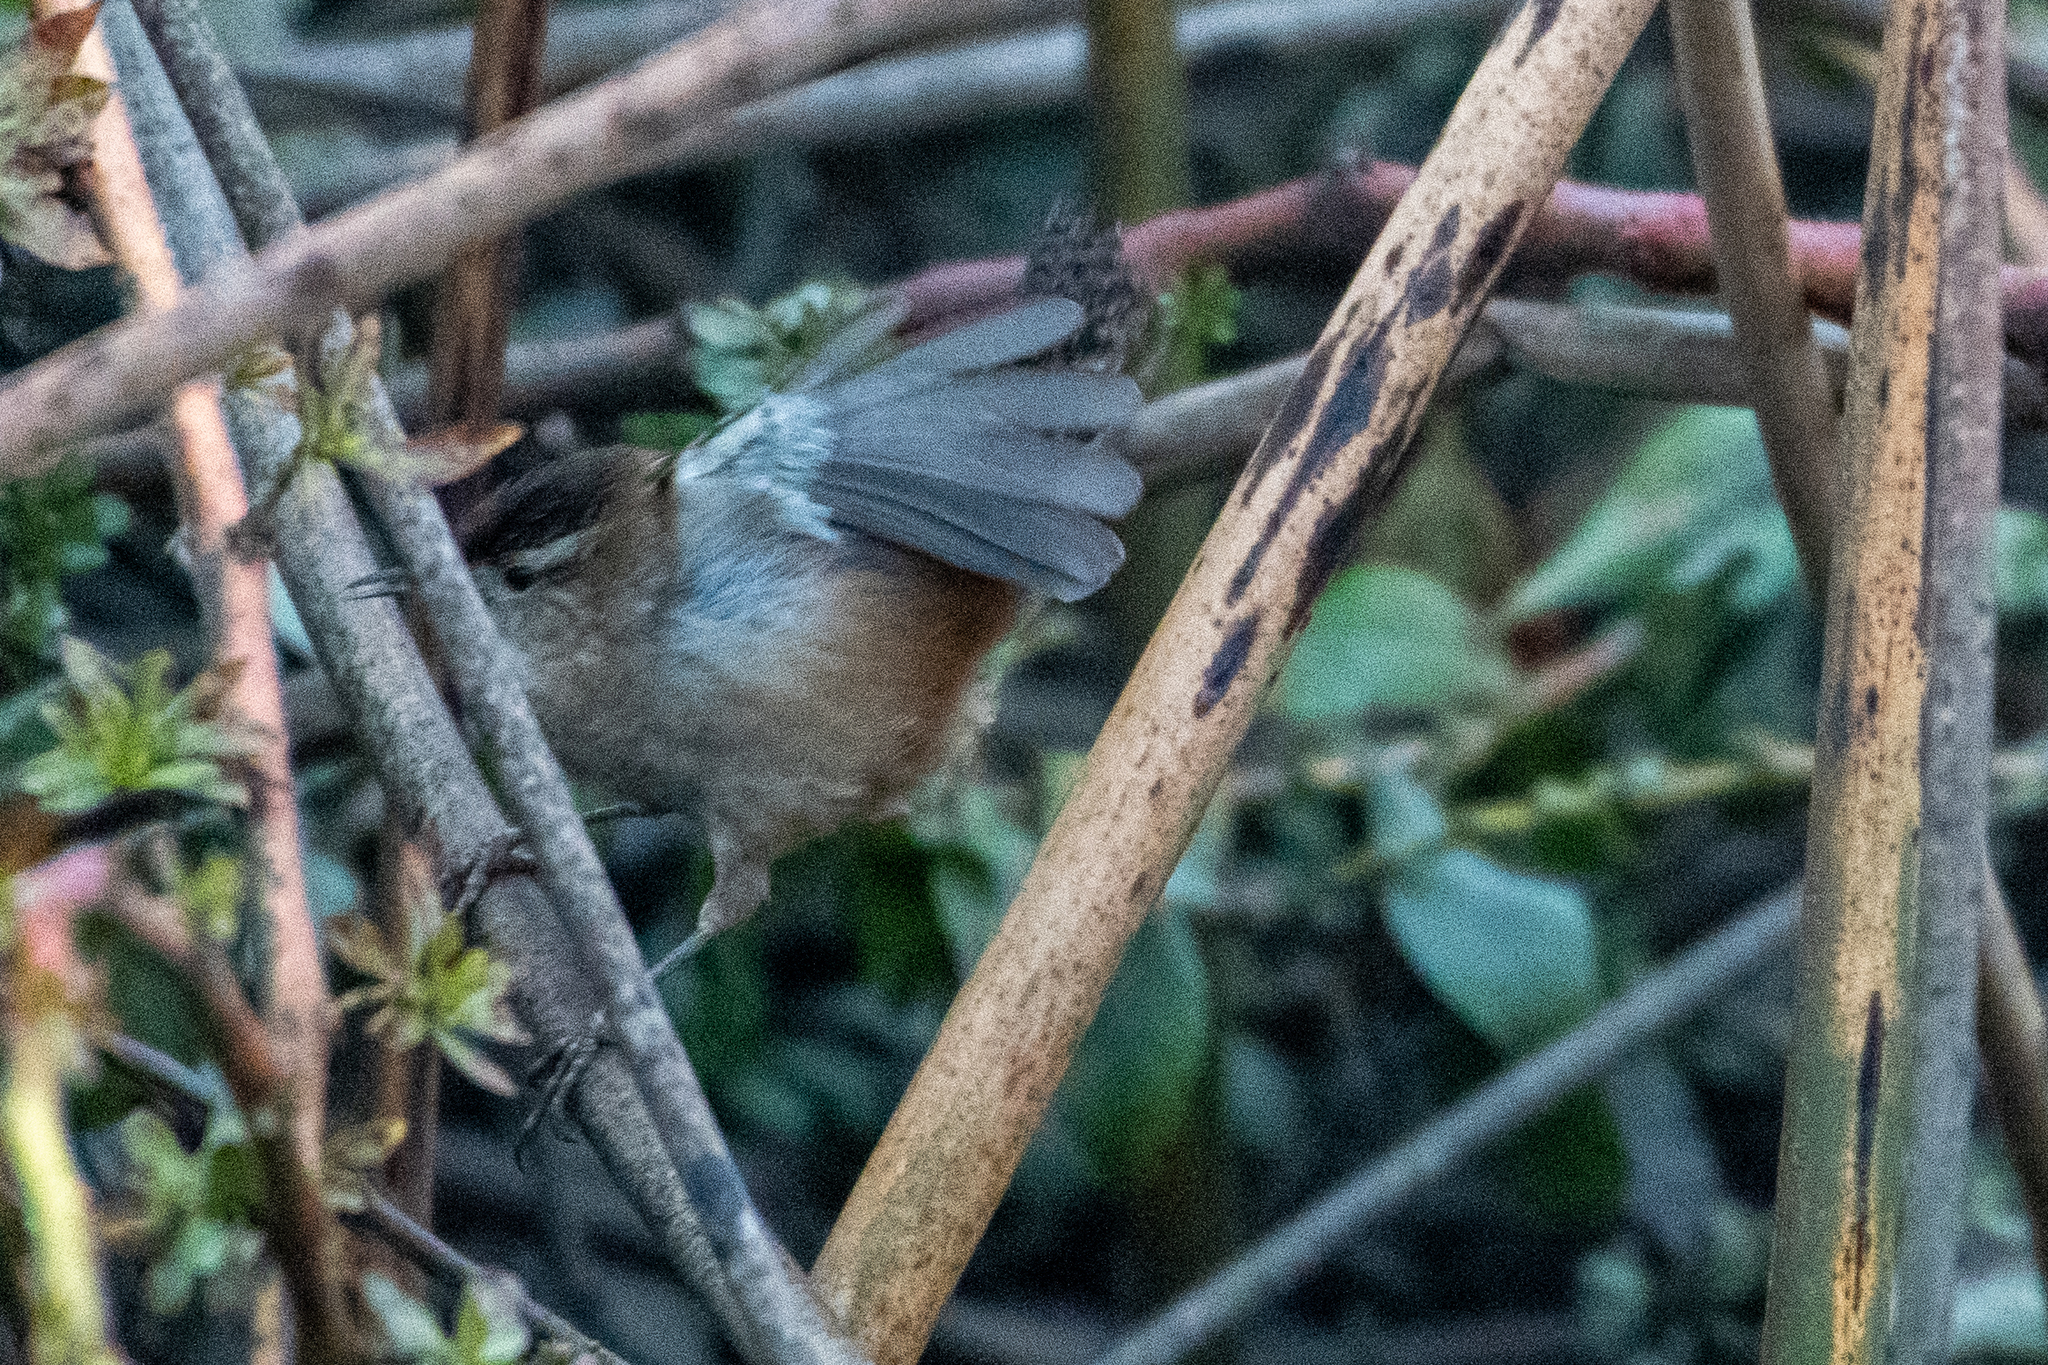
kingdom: Animalia
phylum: Chordata
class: Aves
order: Passeriformes
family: Troglodytidae
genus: Cistothorus
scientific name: Cistothorus palustris
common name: Marsh wren
